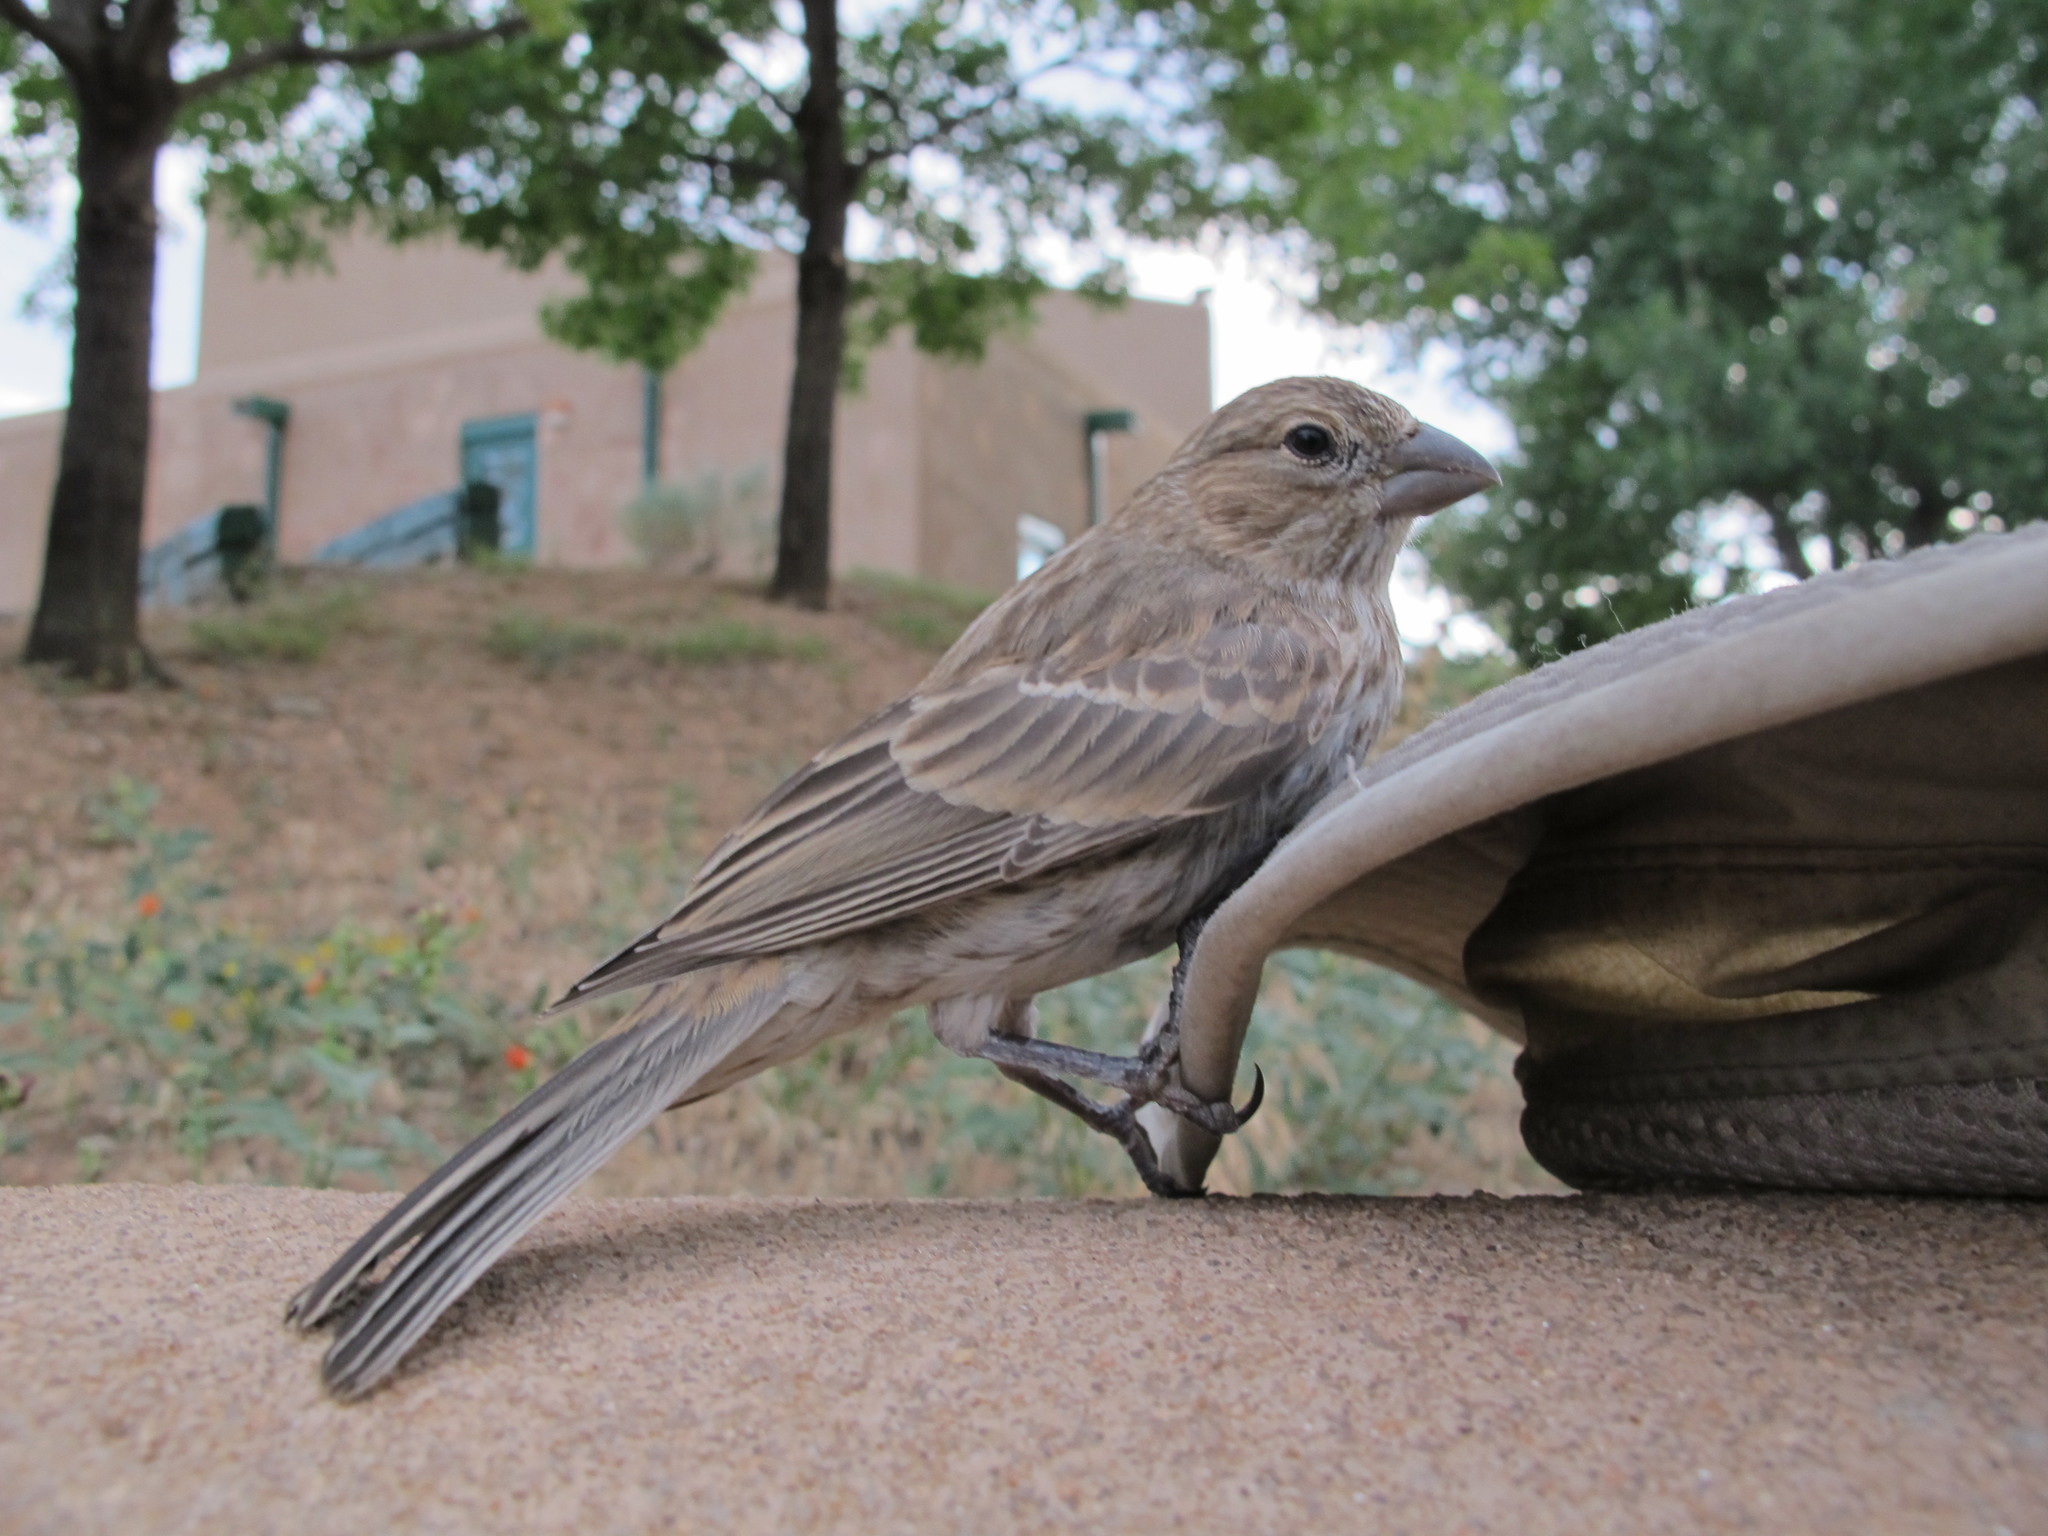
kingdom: Animalia
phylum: Chordata
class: Aves
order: Passeriformes
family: Fringillidae
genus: Haemorhous
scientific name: Haemorhous mexicanus
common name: House finch
